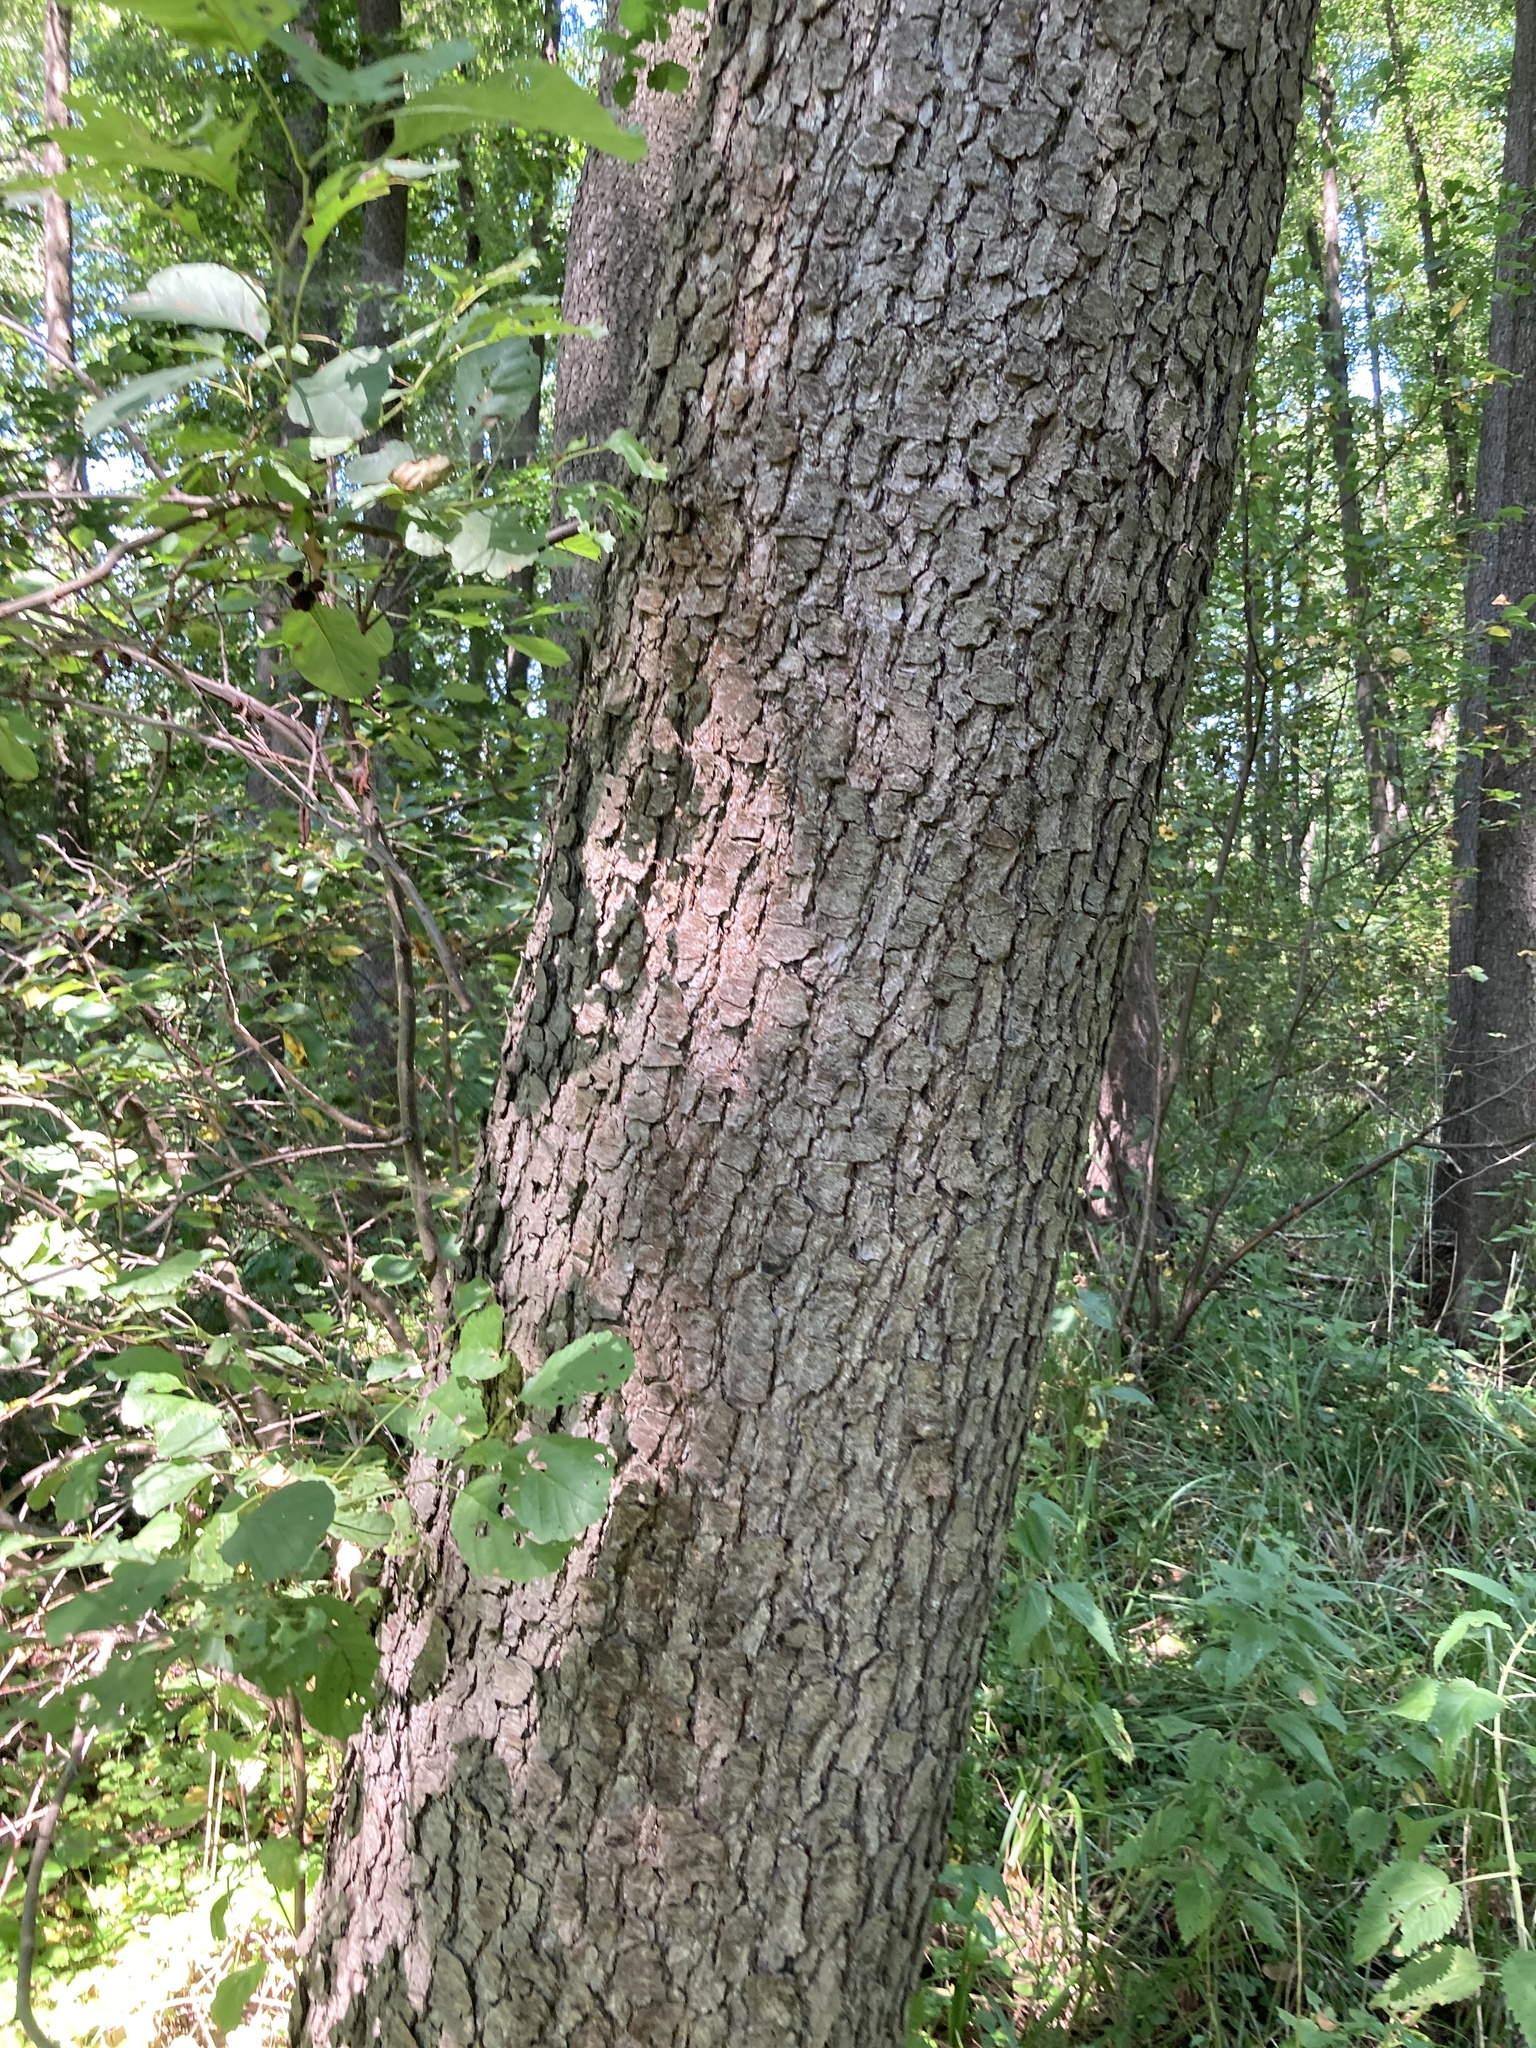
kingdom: Plantae
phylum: Tracheophyta
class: Magnoliopsida
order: Fagales
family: Betulaceae
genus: Alnus
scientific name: Alnus glutinosa
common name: Black alder
